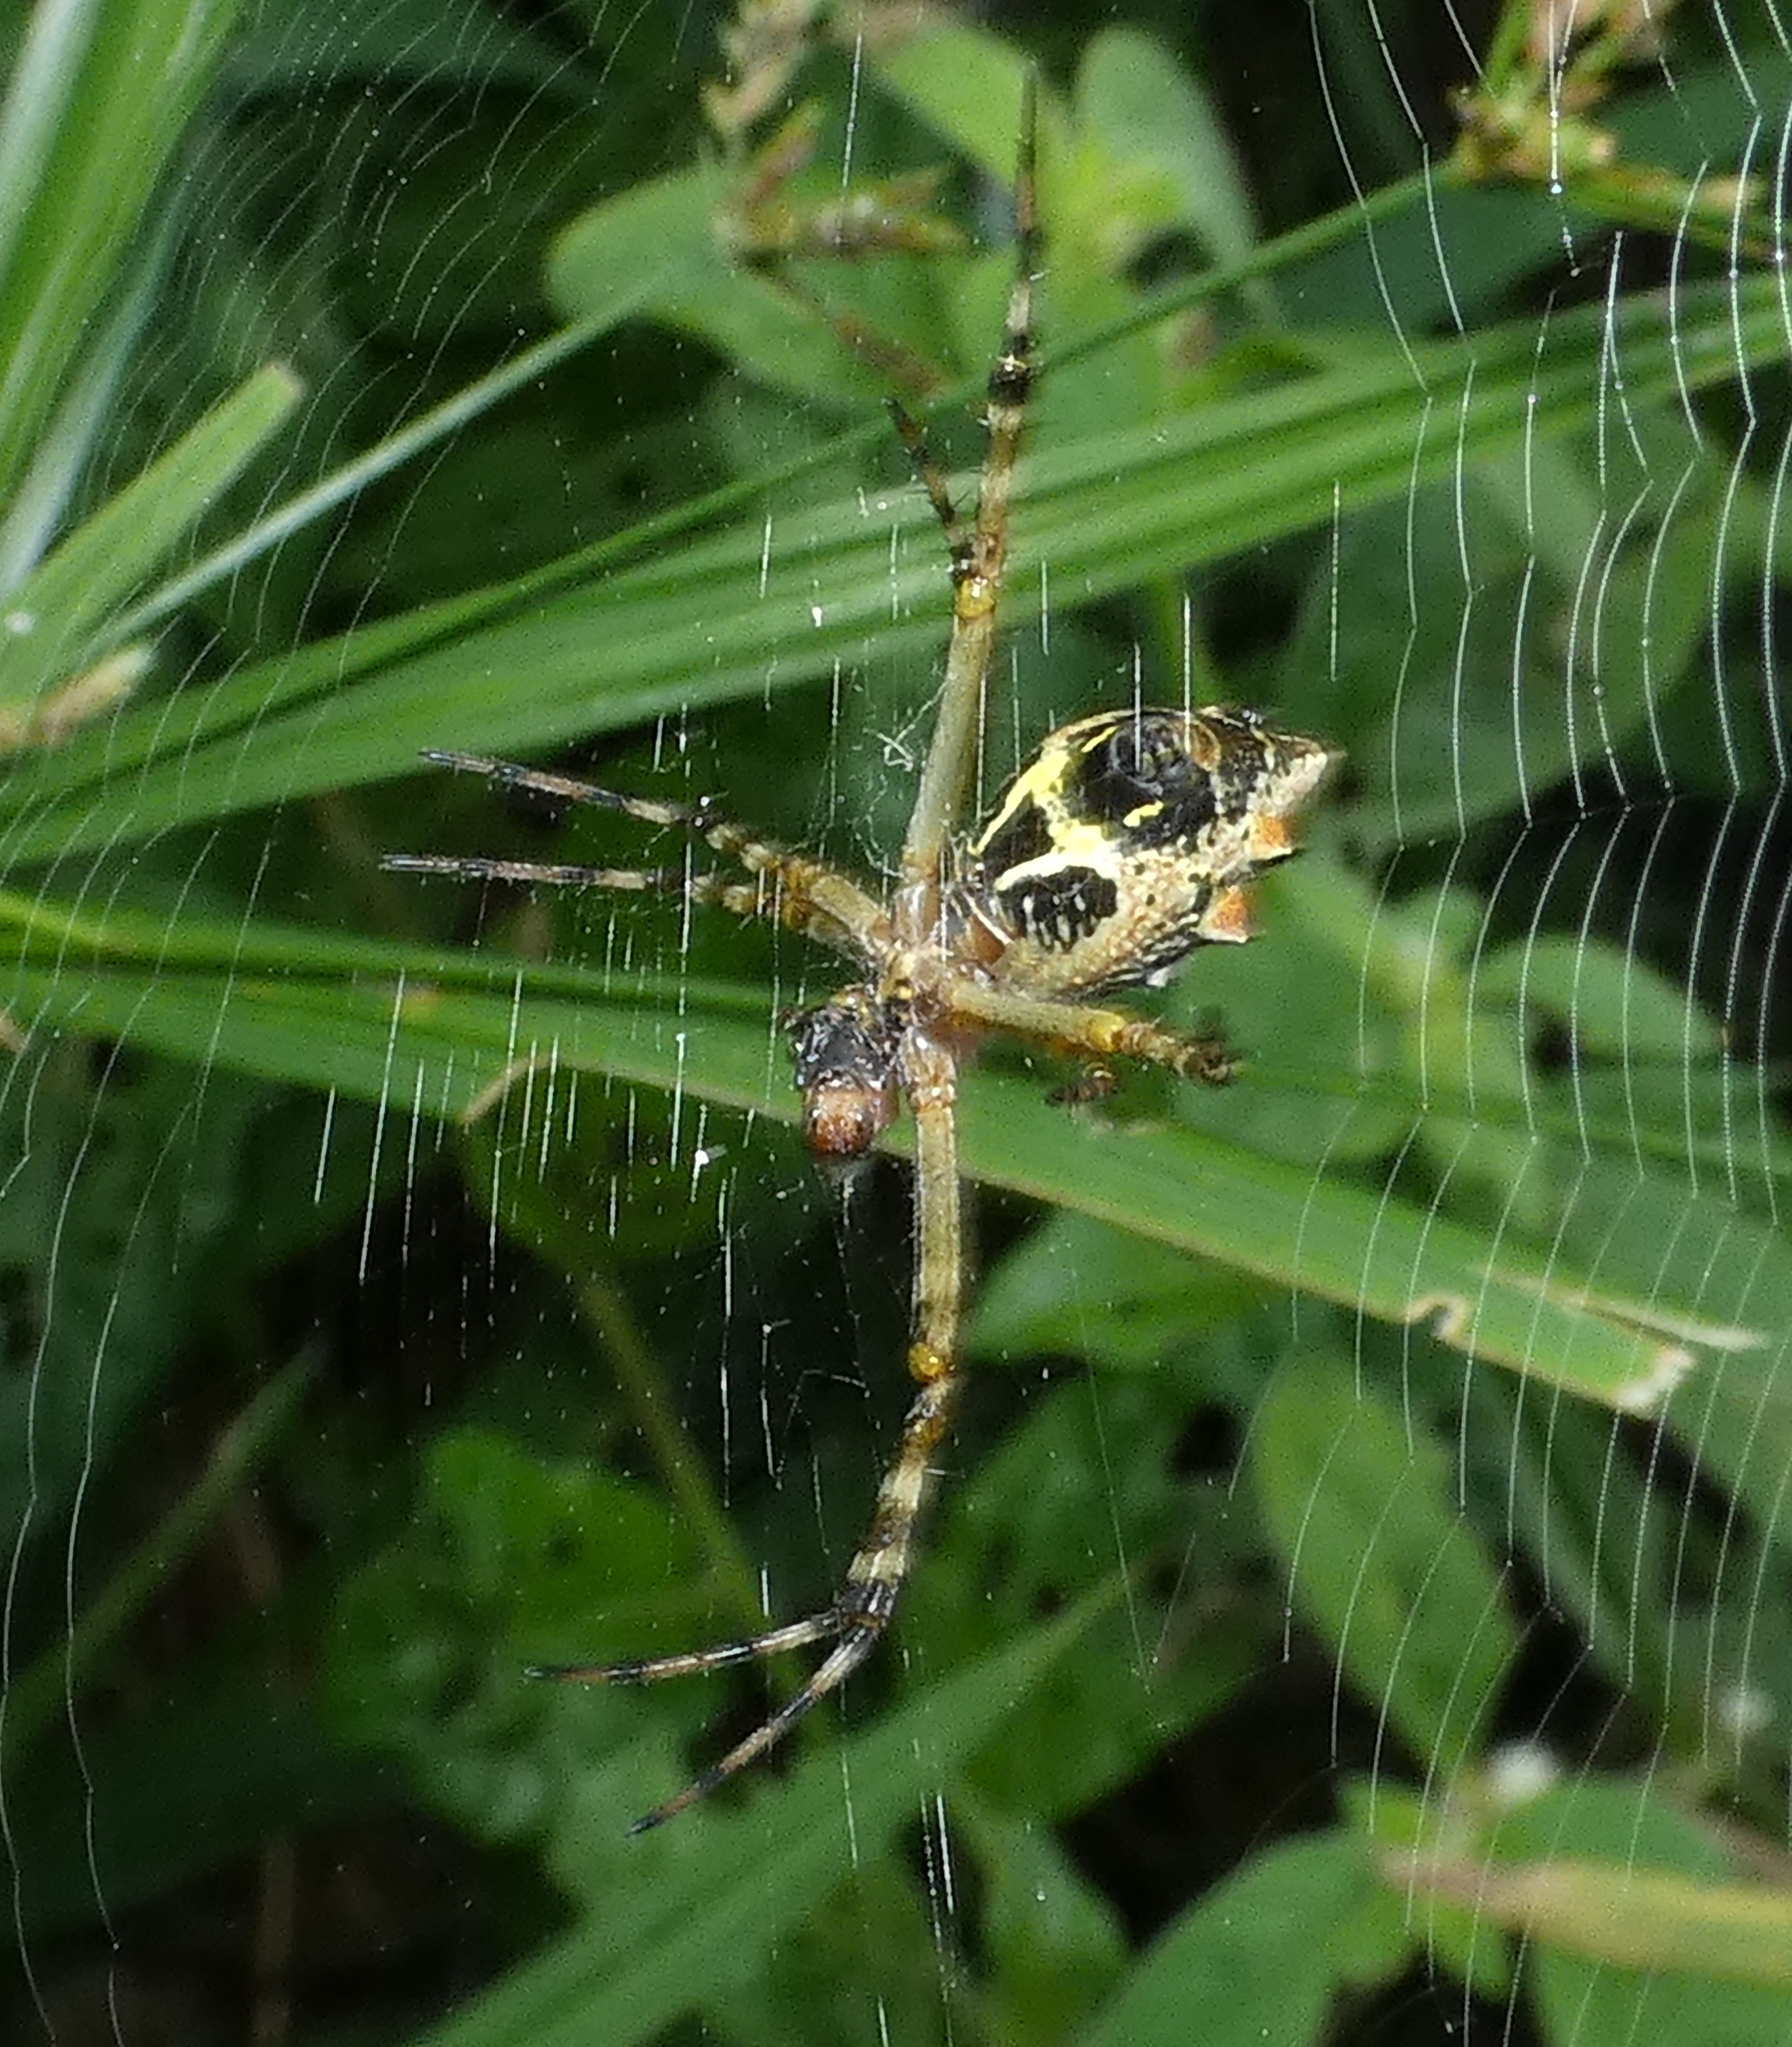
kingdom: Animalia
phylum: Arthropoda
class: Arachnida
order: Araneae
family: Araneidae
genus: Argiope
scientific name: Argiope argentata
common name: Orb weavers
